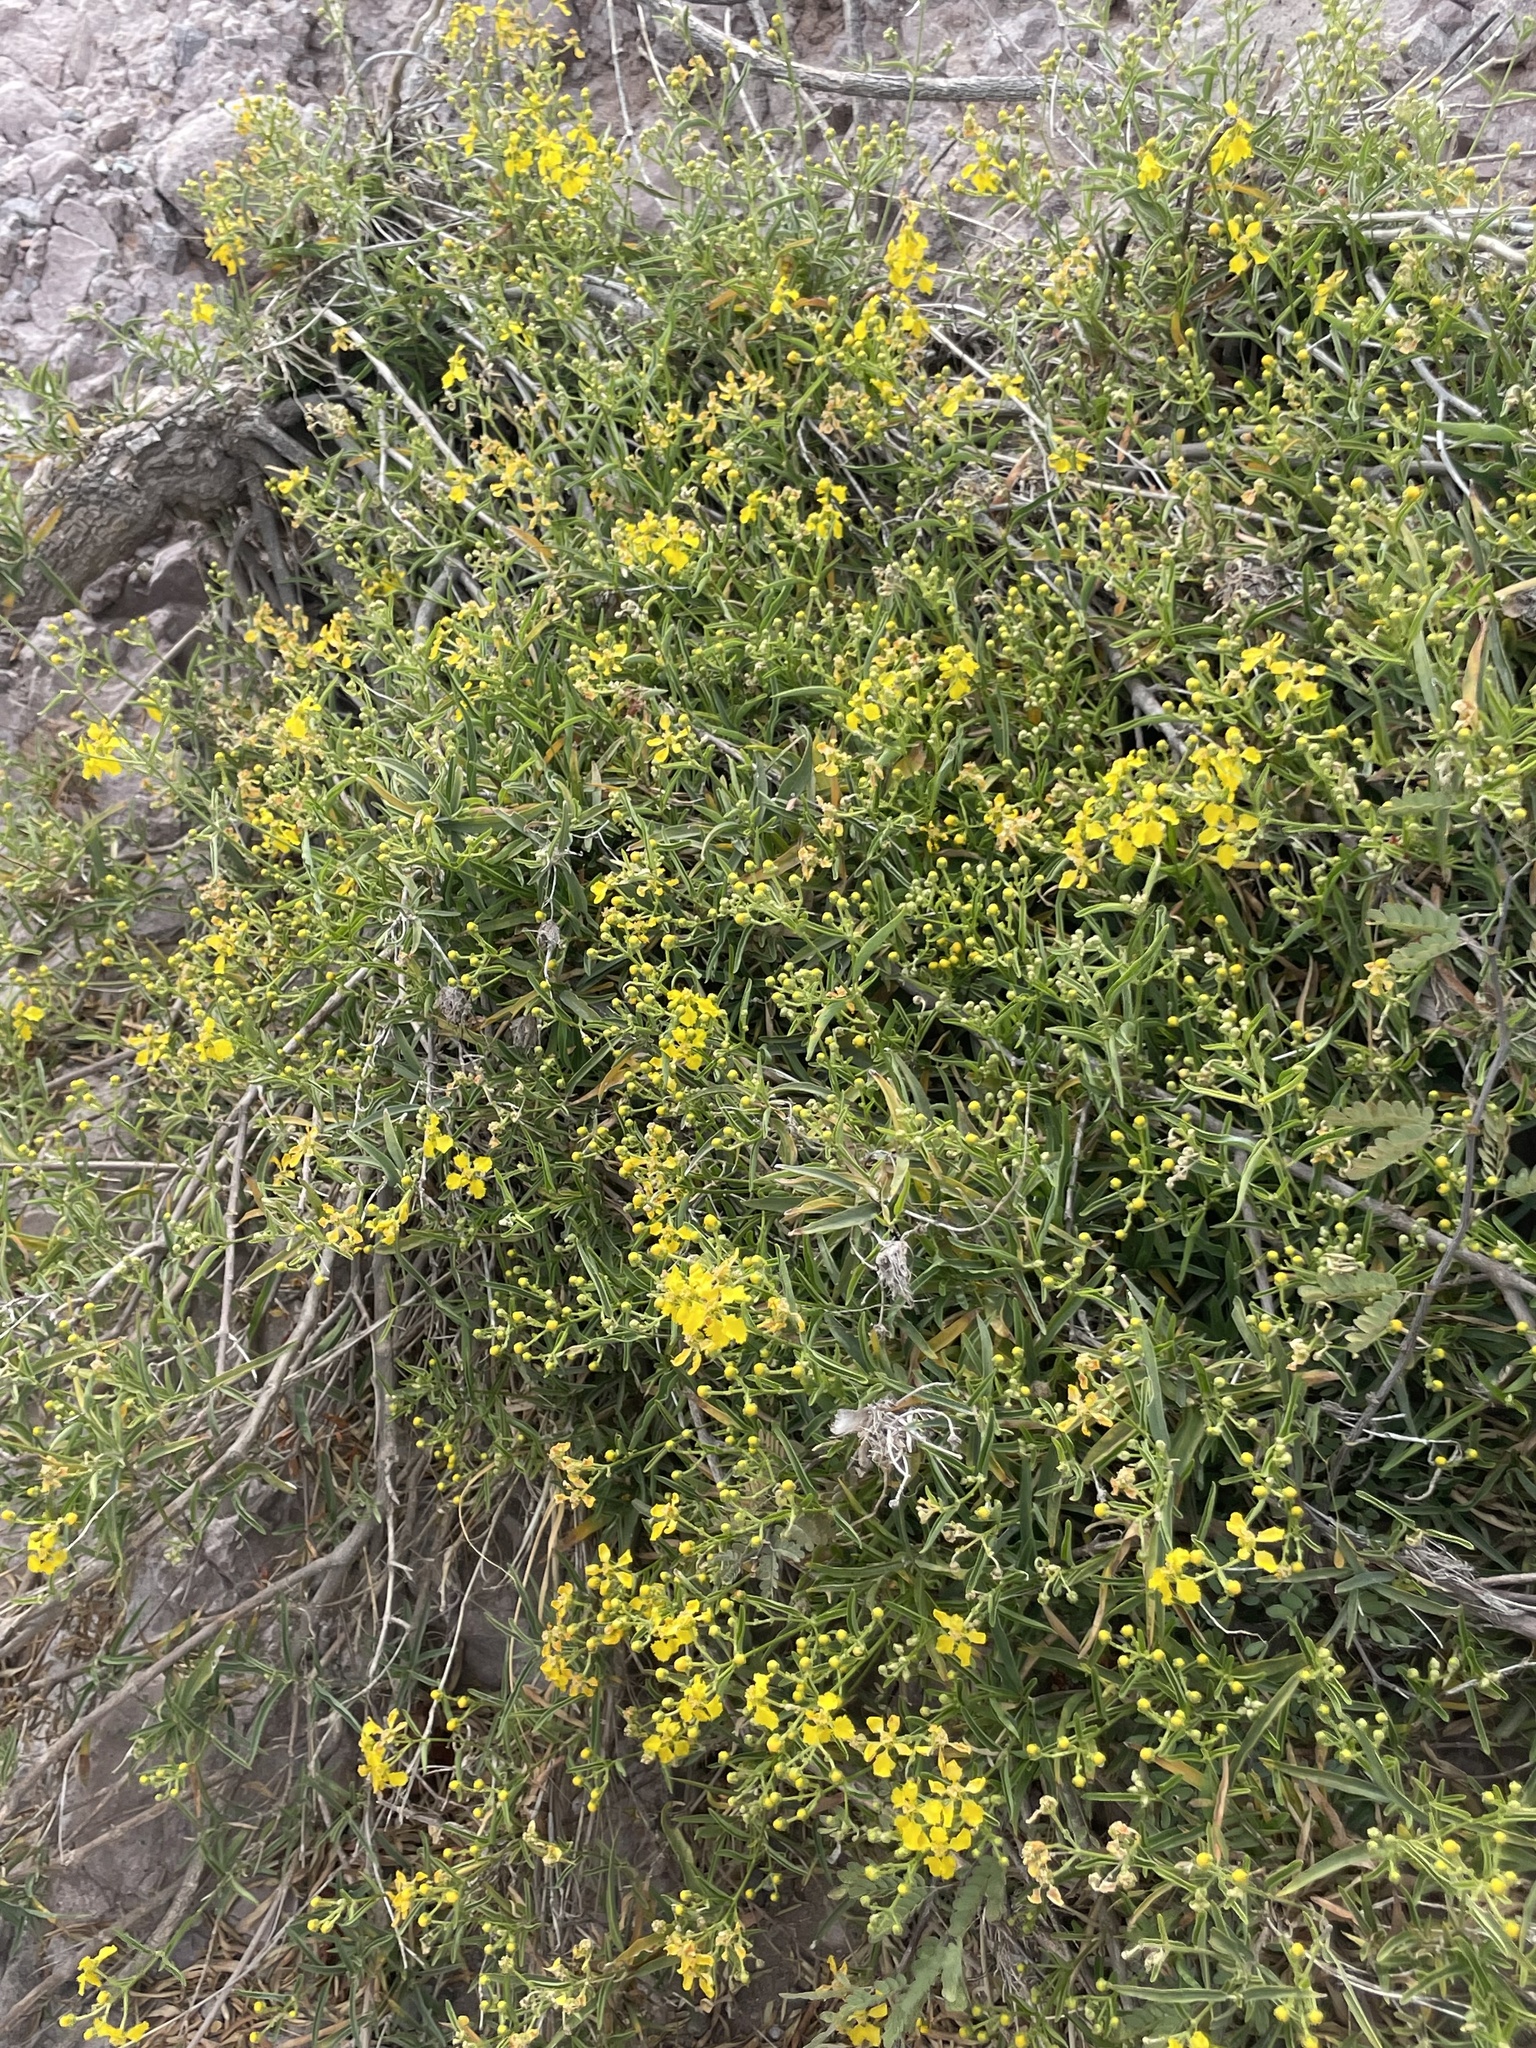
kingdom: Plantae
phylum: Tracheophyta
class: Magnoliopsida
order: Malpighiales
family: Malpighiaceae
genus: Callaeum
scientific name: Callaeum macropterum
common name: Mexican butterfly-vine
